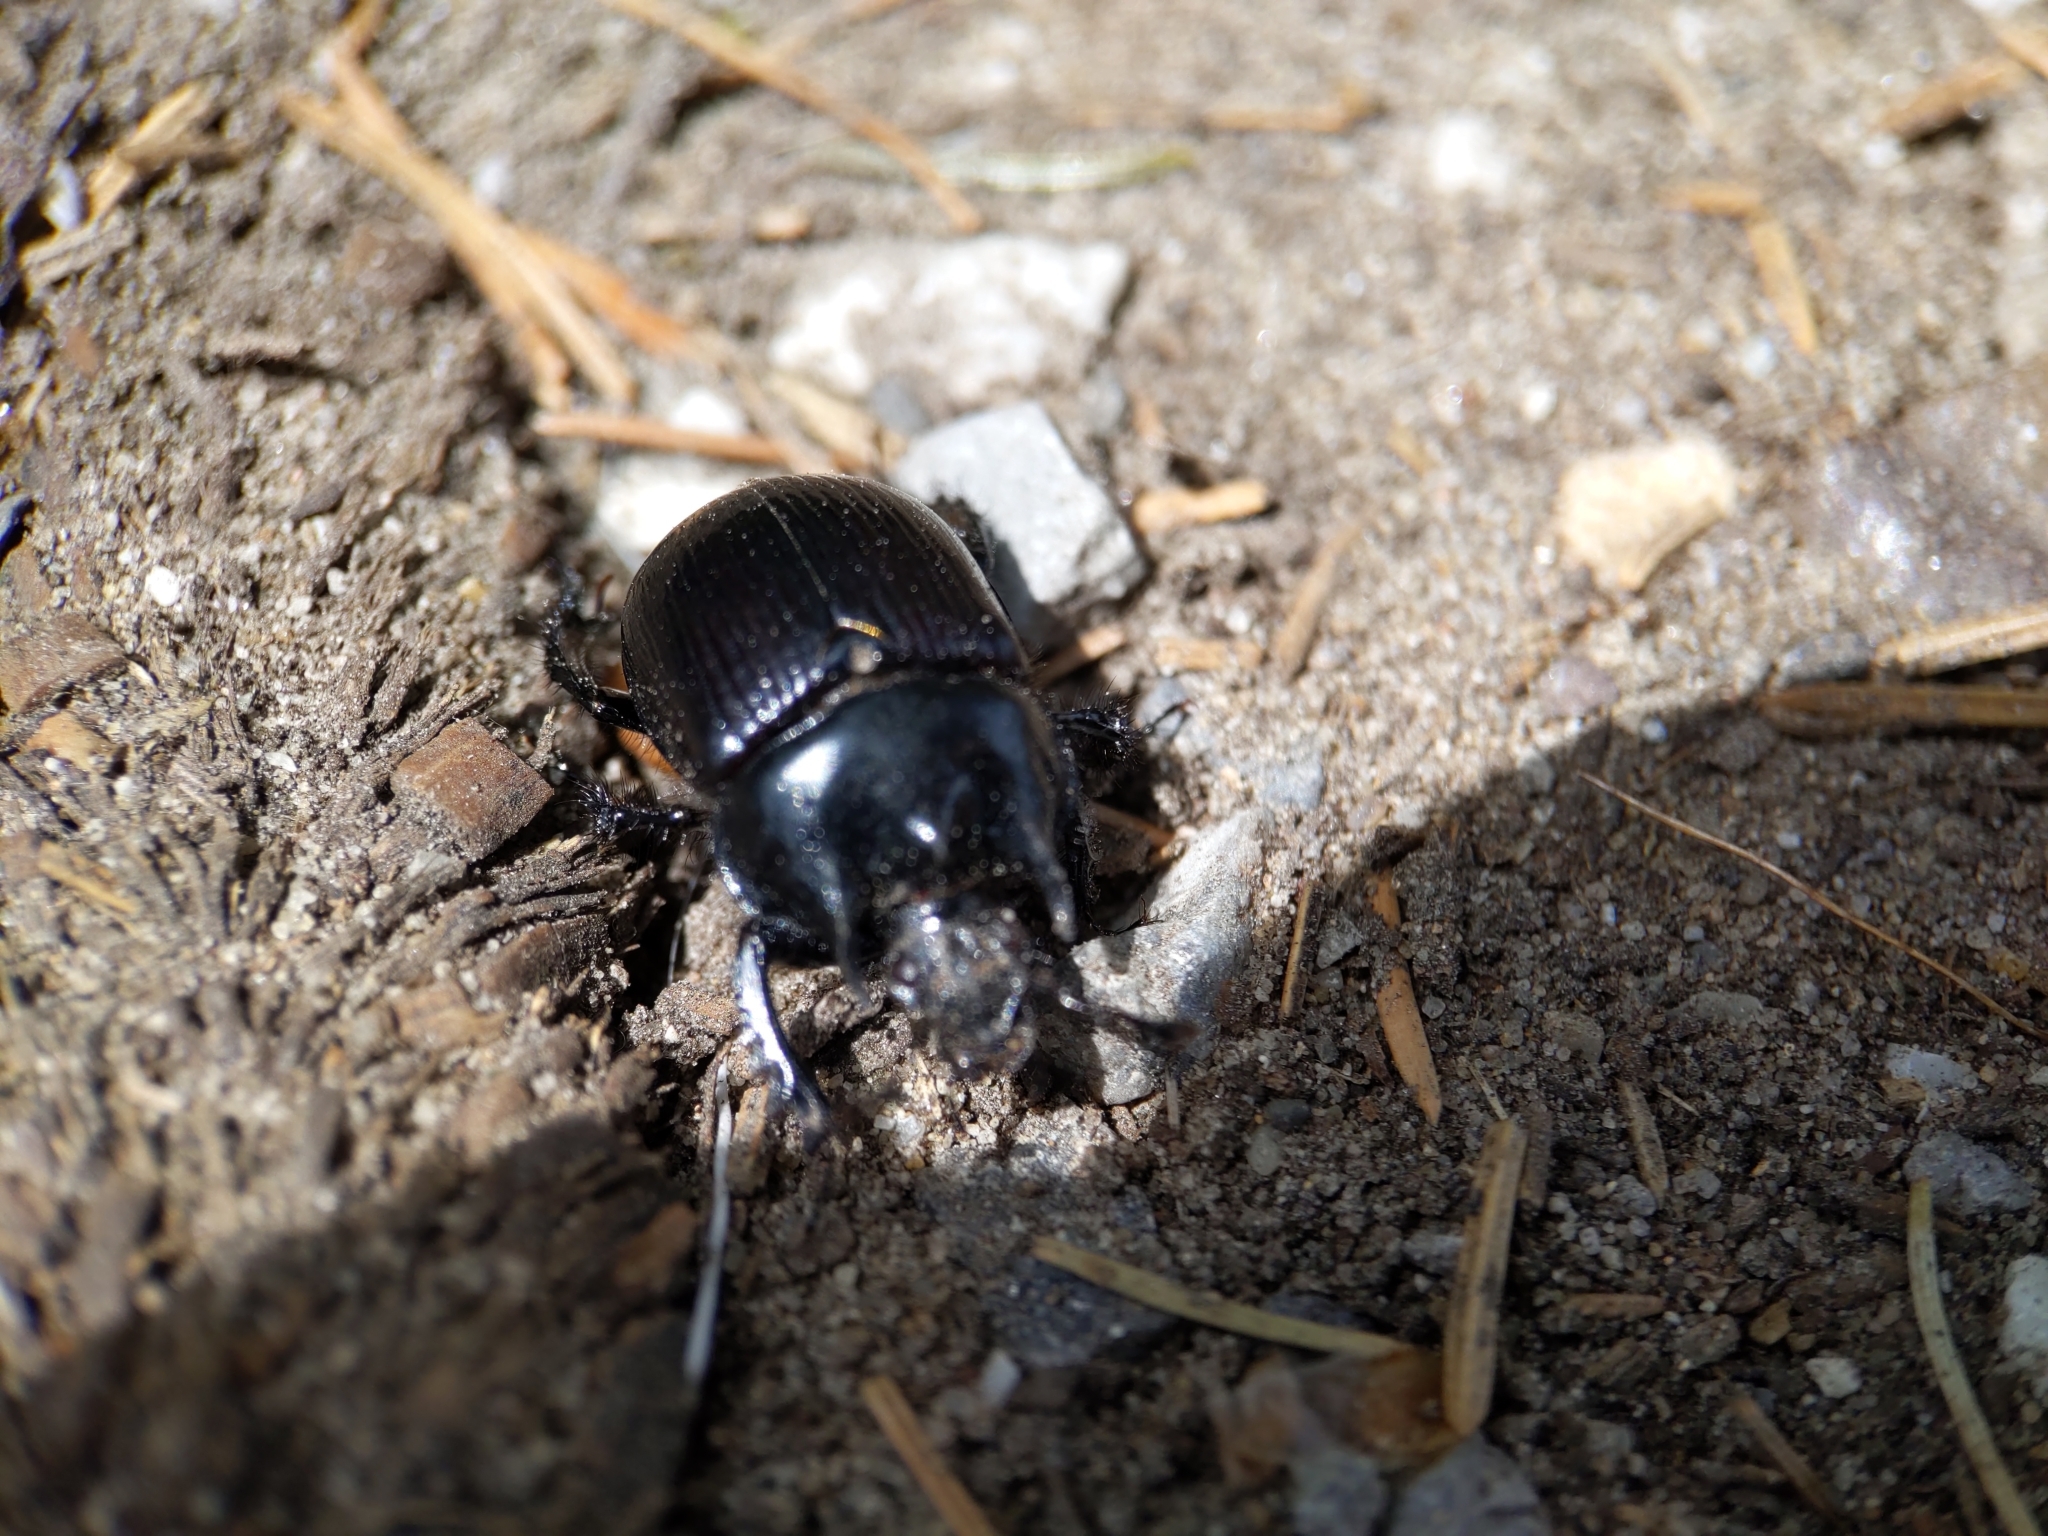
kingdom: Animalia
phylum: Arthropoda
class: Insecta
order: Coleoptera
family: Geotrupidae
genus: Typhaeus
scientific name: Typhaeus typhoeus
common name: Minotaur beetle
